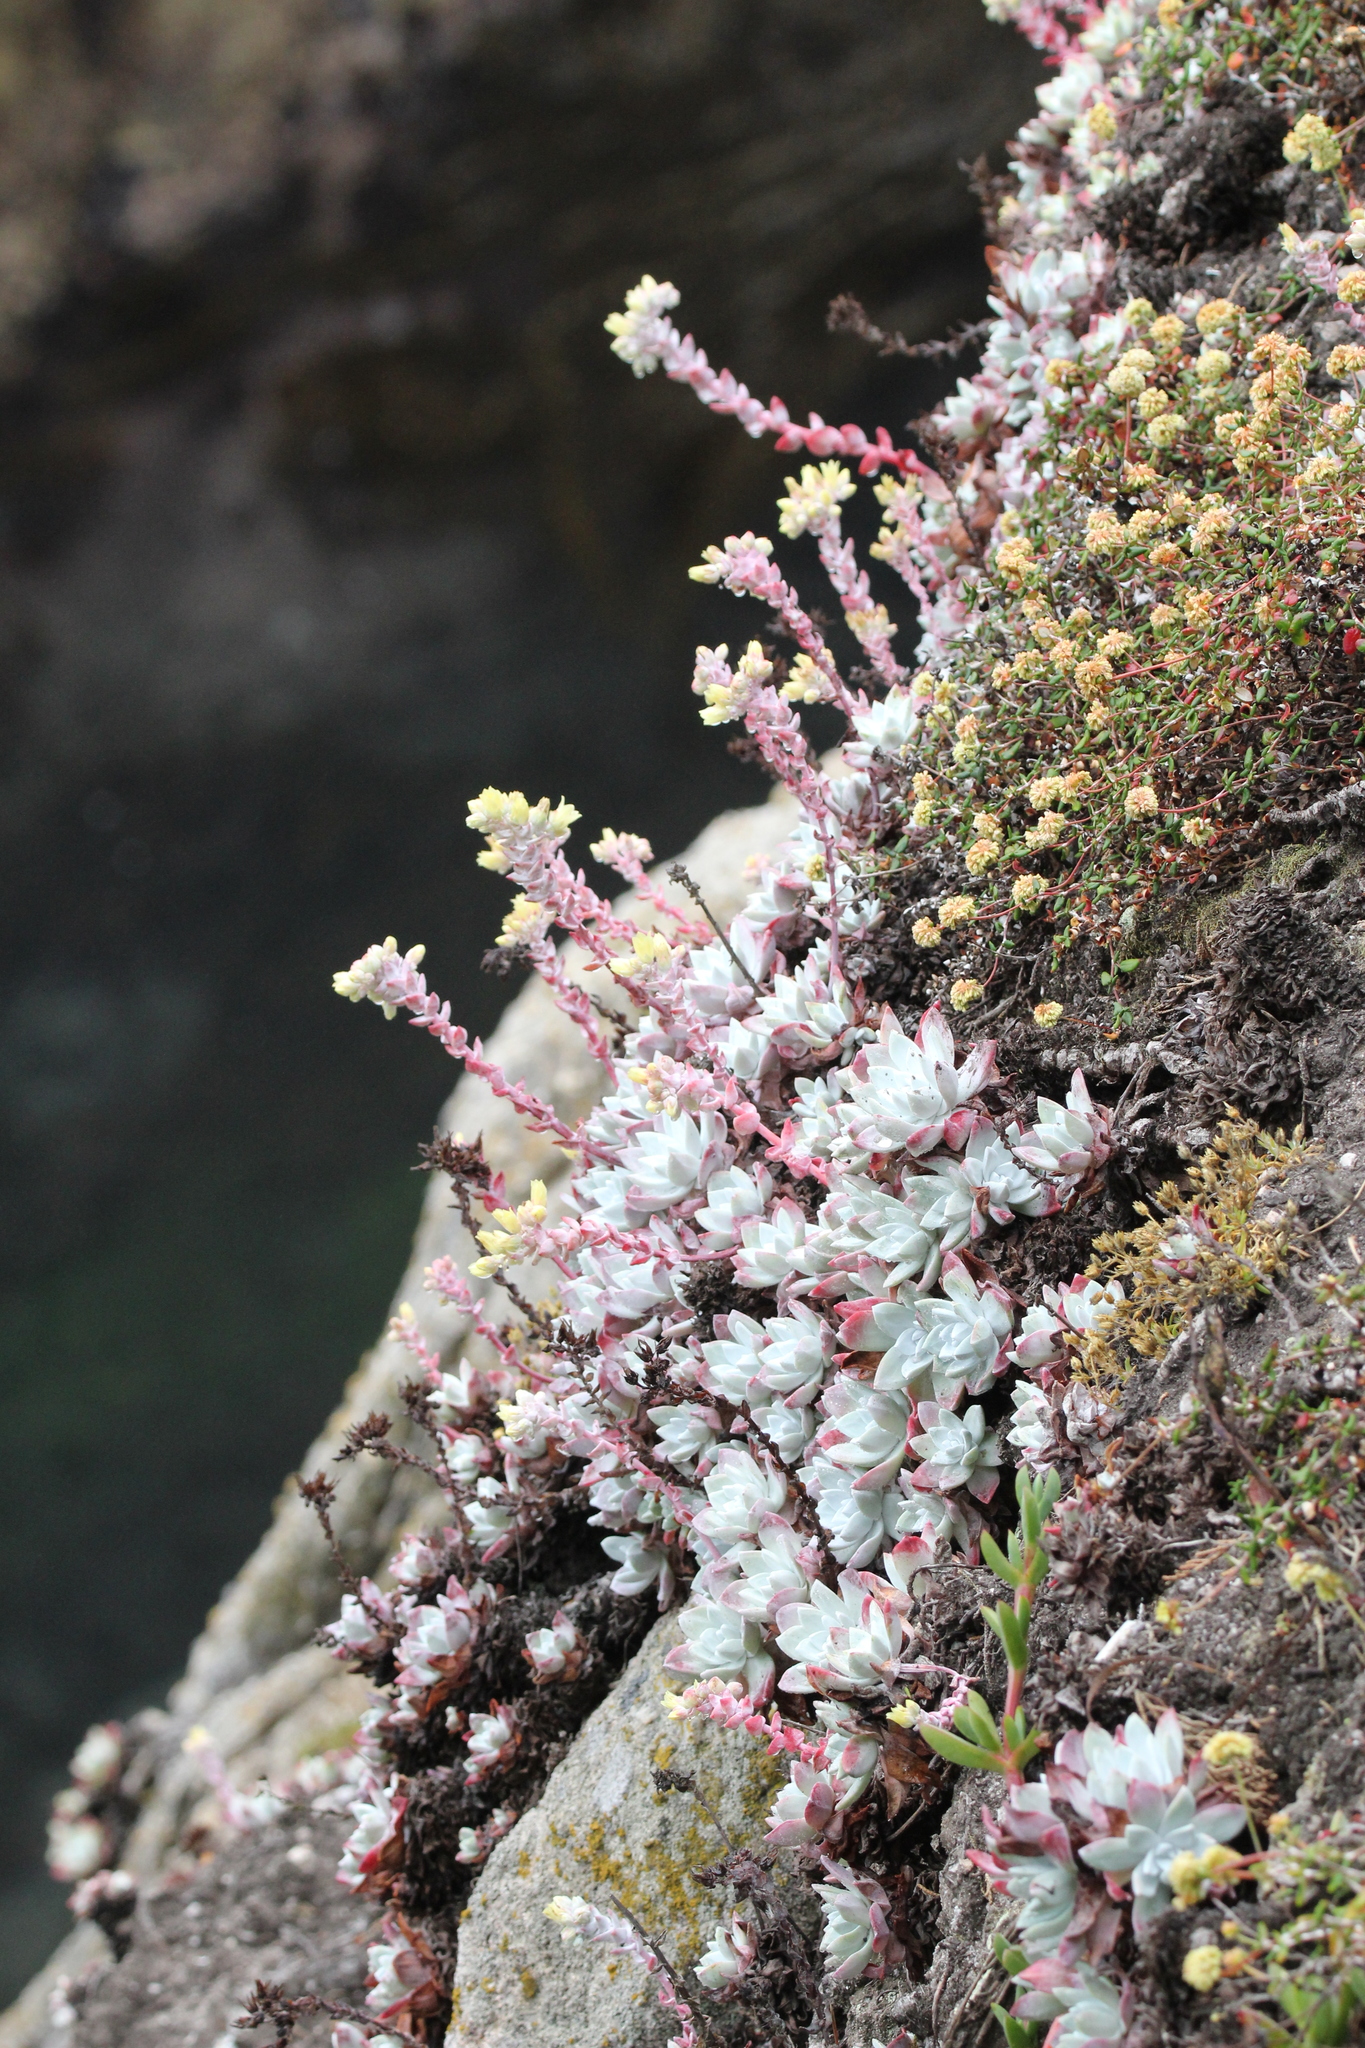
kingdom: Plantae
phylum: Tracheophyta
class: Magnoliopsida
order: Saxifragales
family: Crassulaceae
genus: Dudleya
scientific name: Dudleya farinosa
